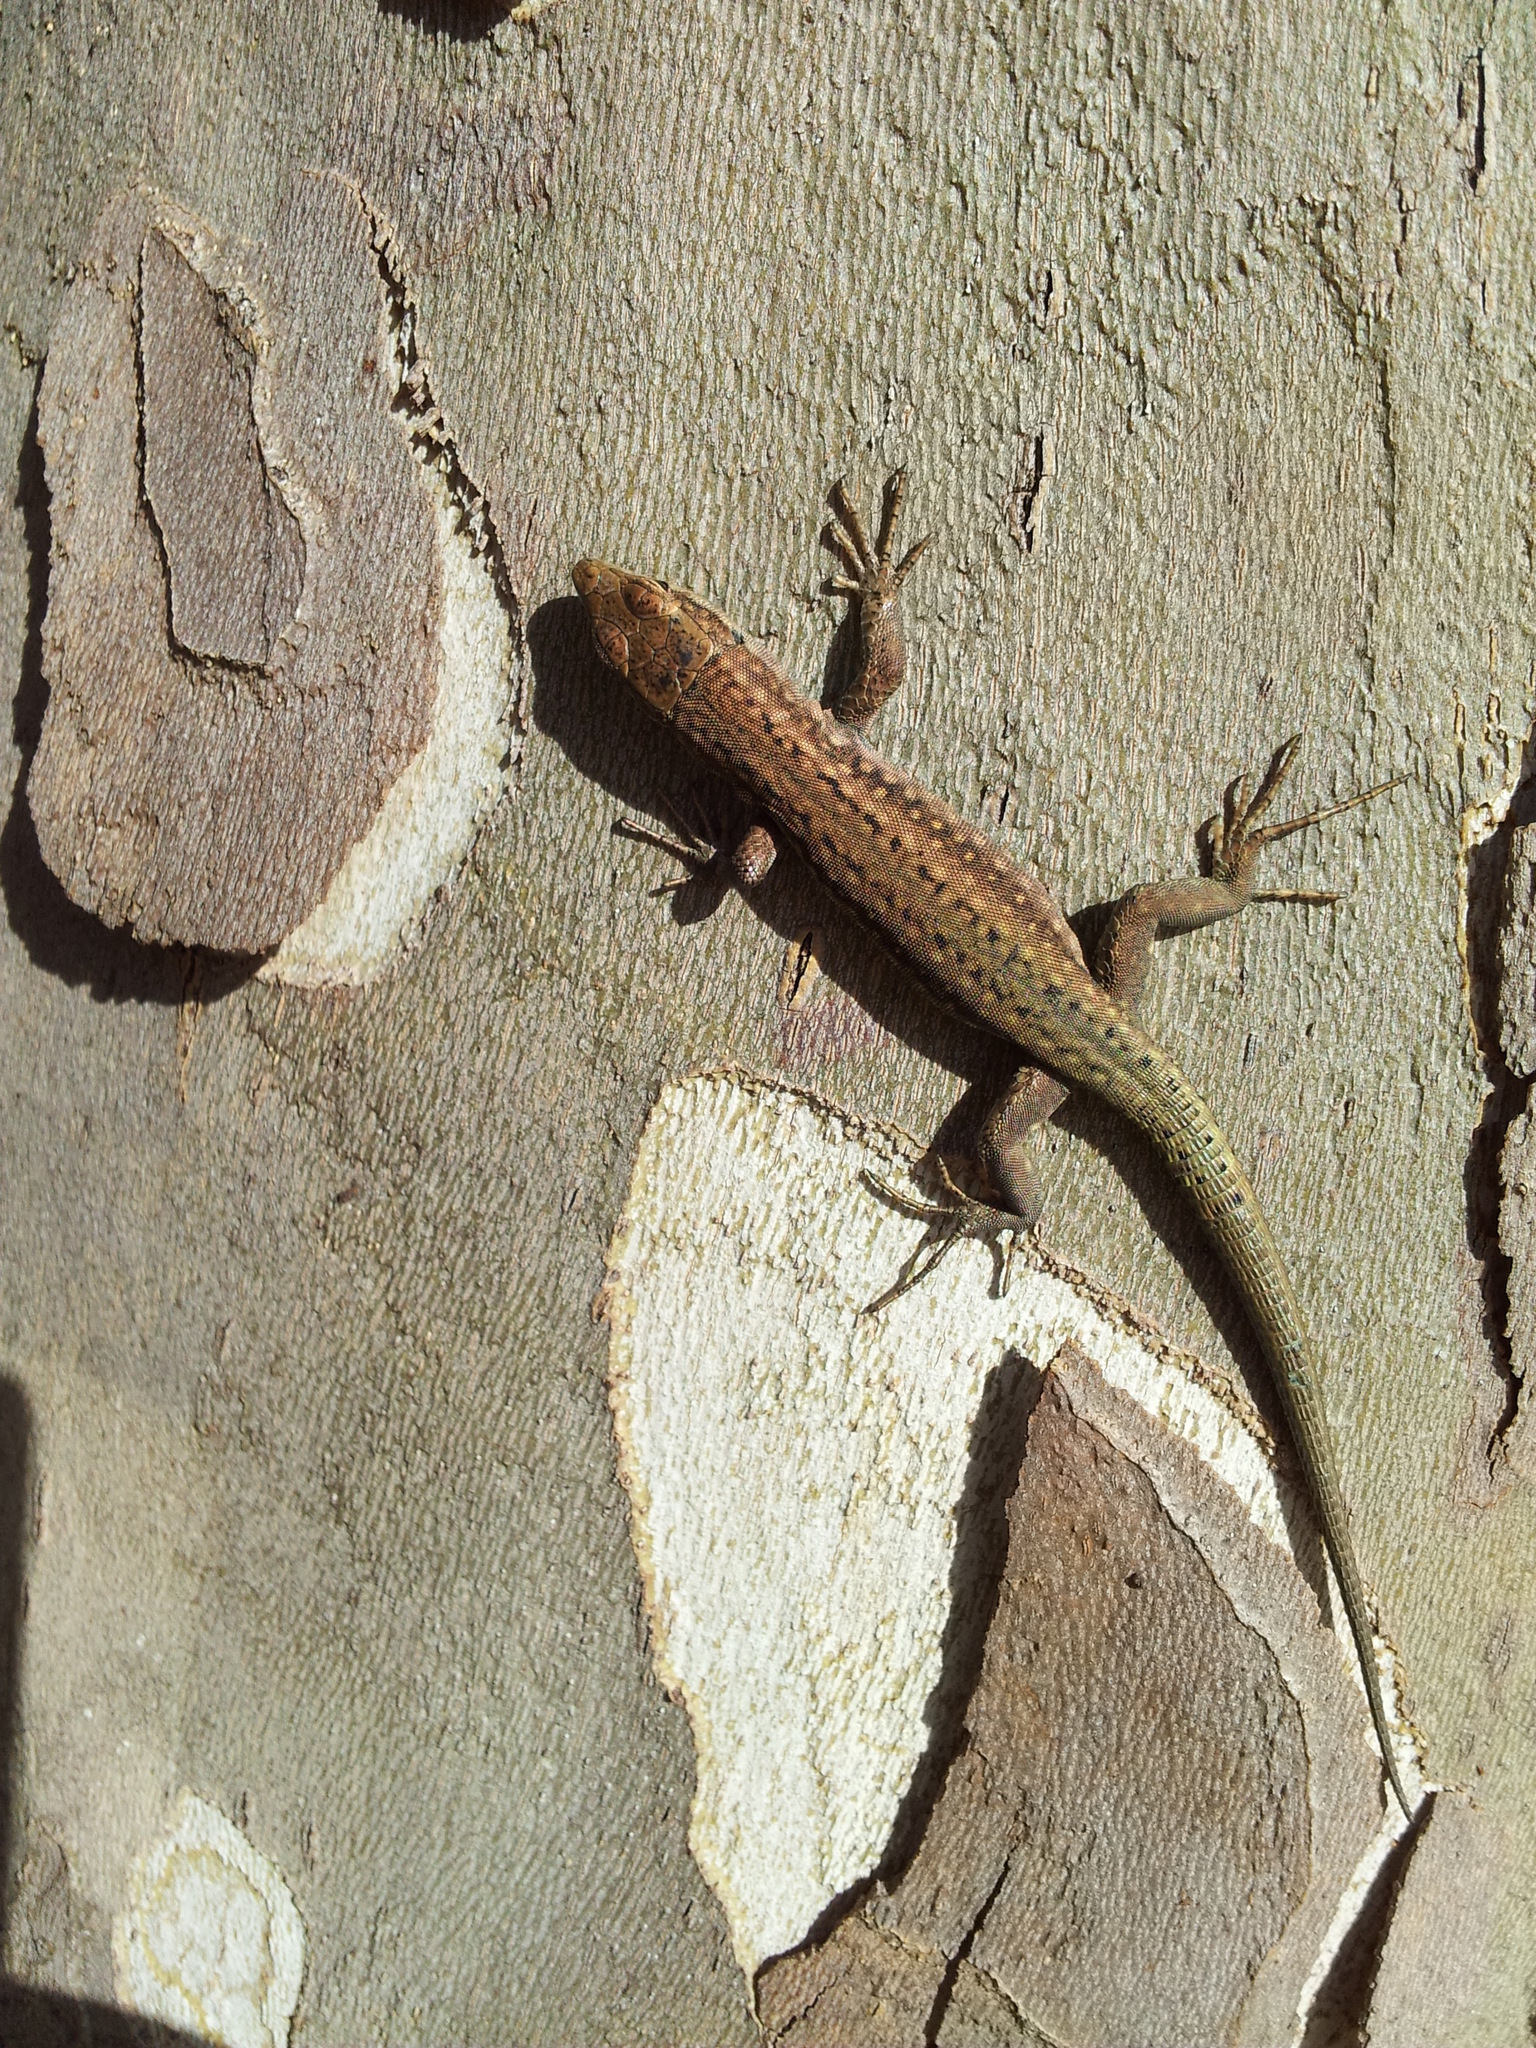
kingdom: Animalia
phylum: Chordata
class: Squamata
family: Lacertidae
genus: Podarcis
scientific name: Podarcis virescens
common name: Geniez’s wall lizard
